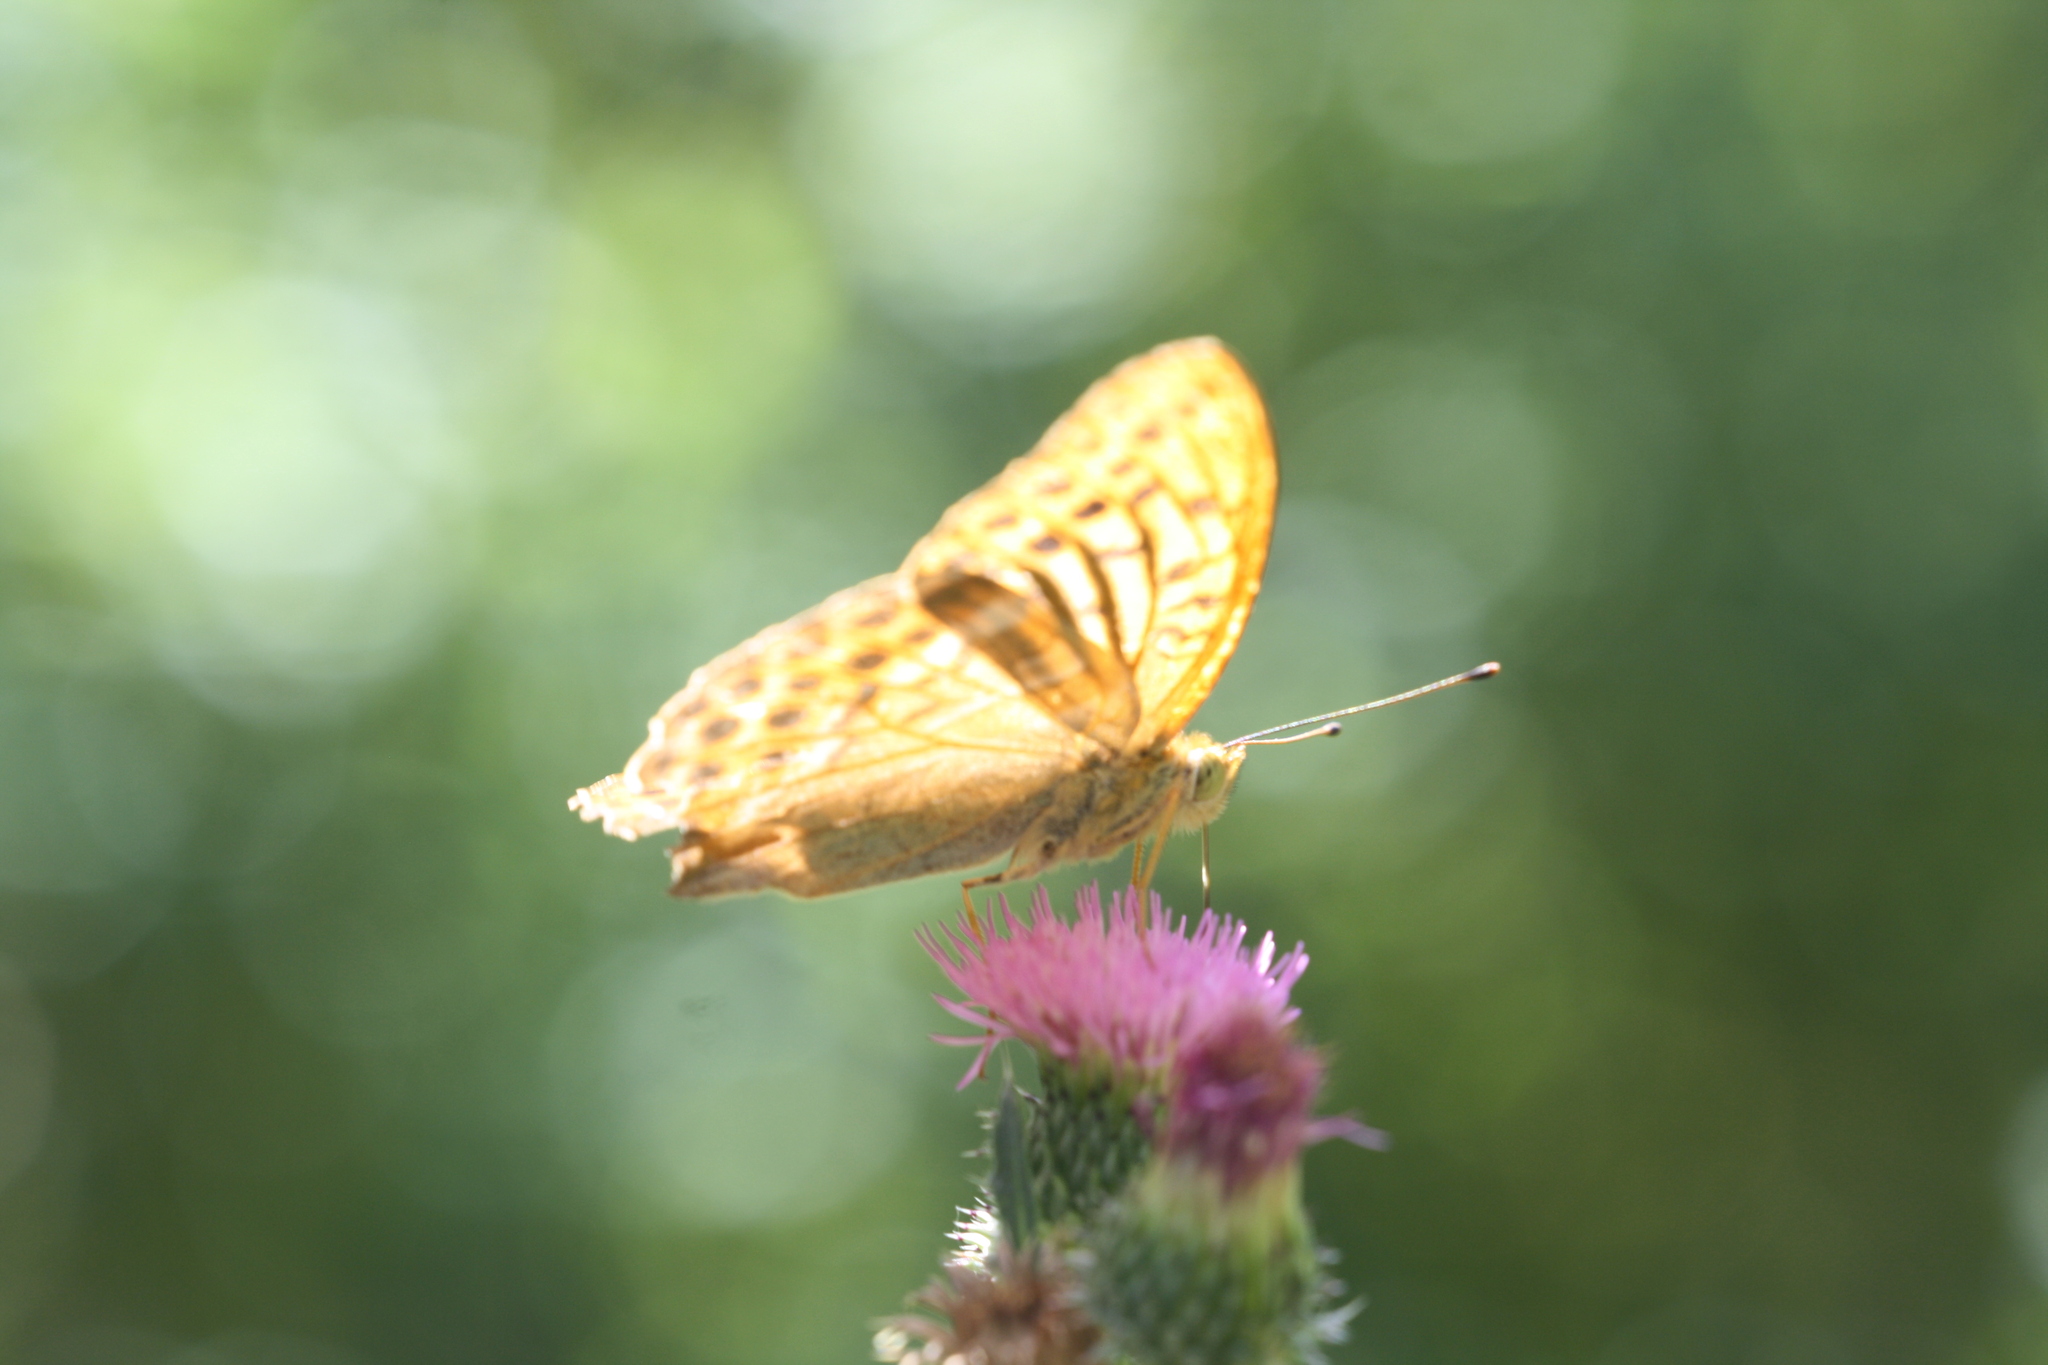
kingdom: Animalia
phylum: Arthropoda
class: Insecta
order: Lepidoptera
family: Nymphalidae
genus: Argynnis
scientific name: Argynnis paphia
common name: Silver-washed fritillary
